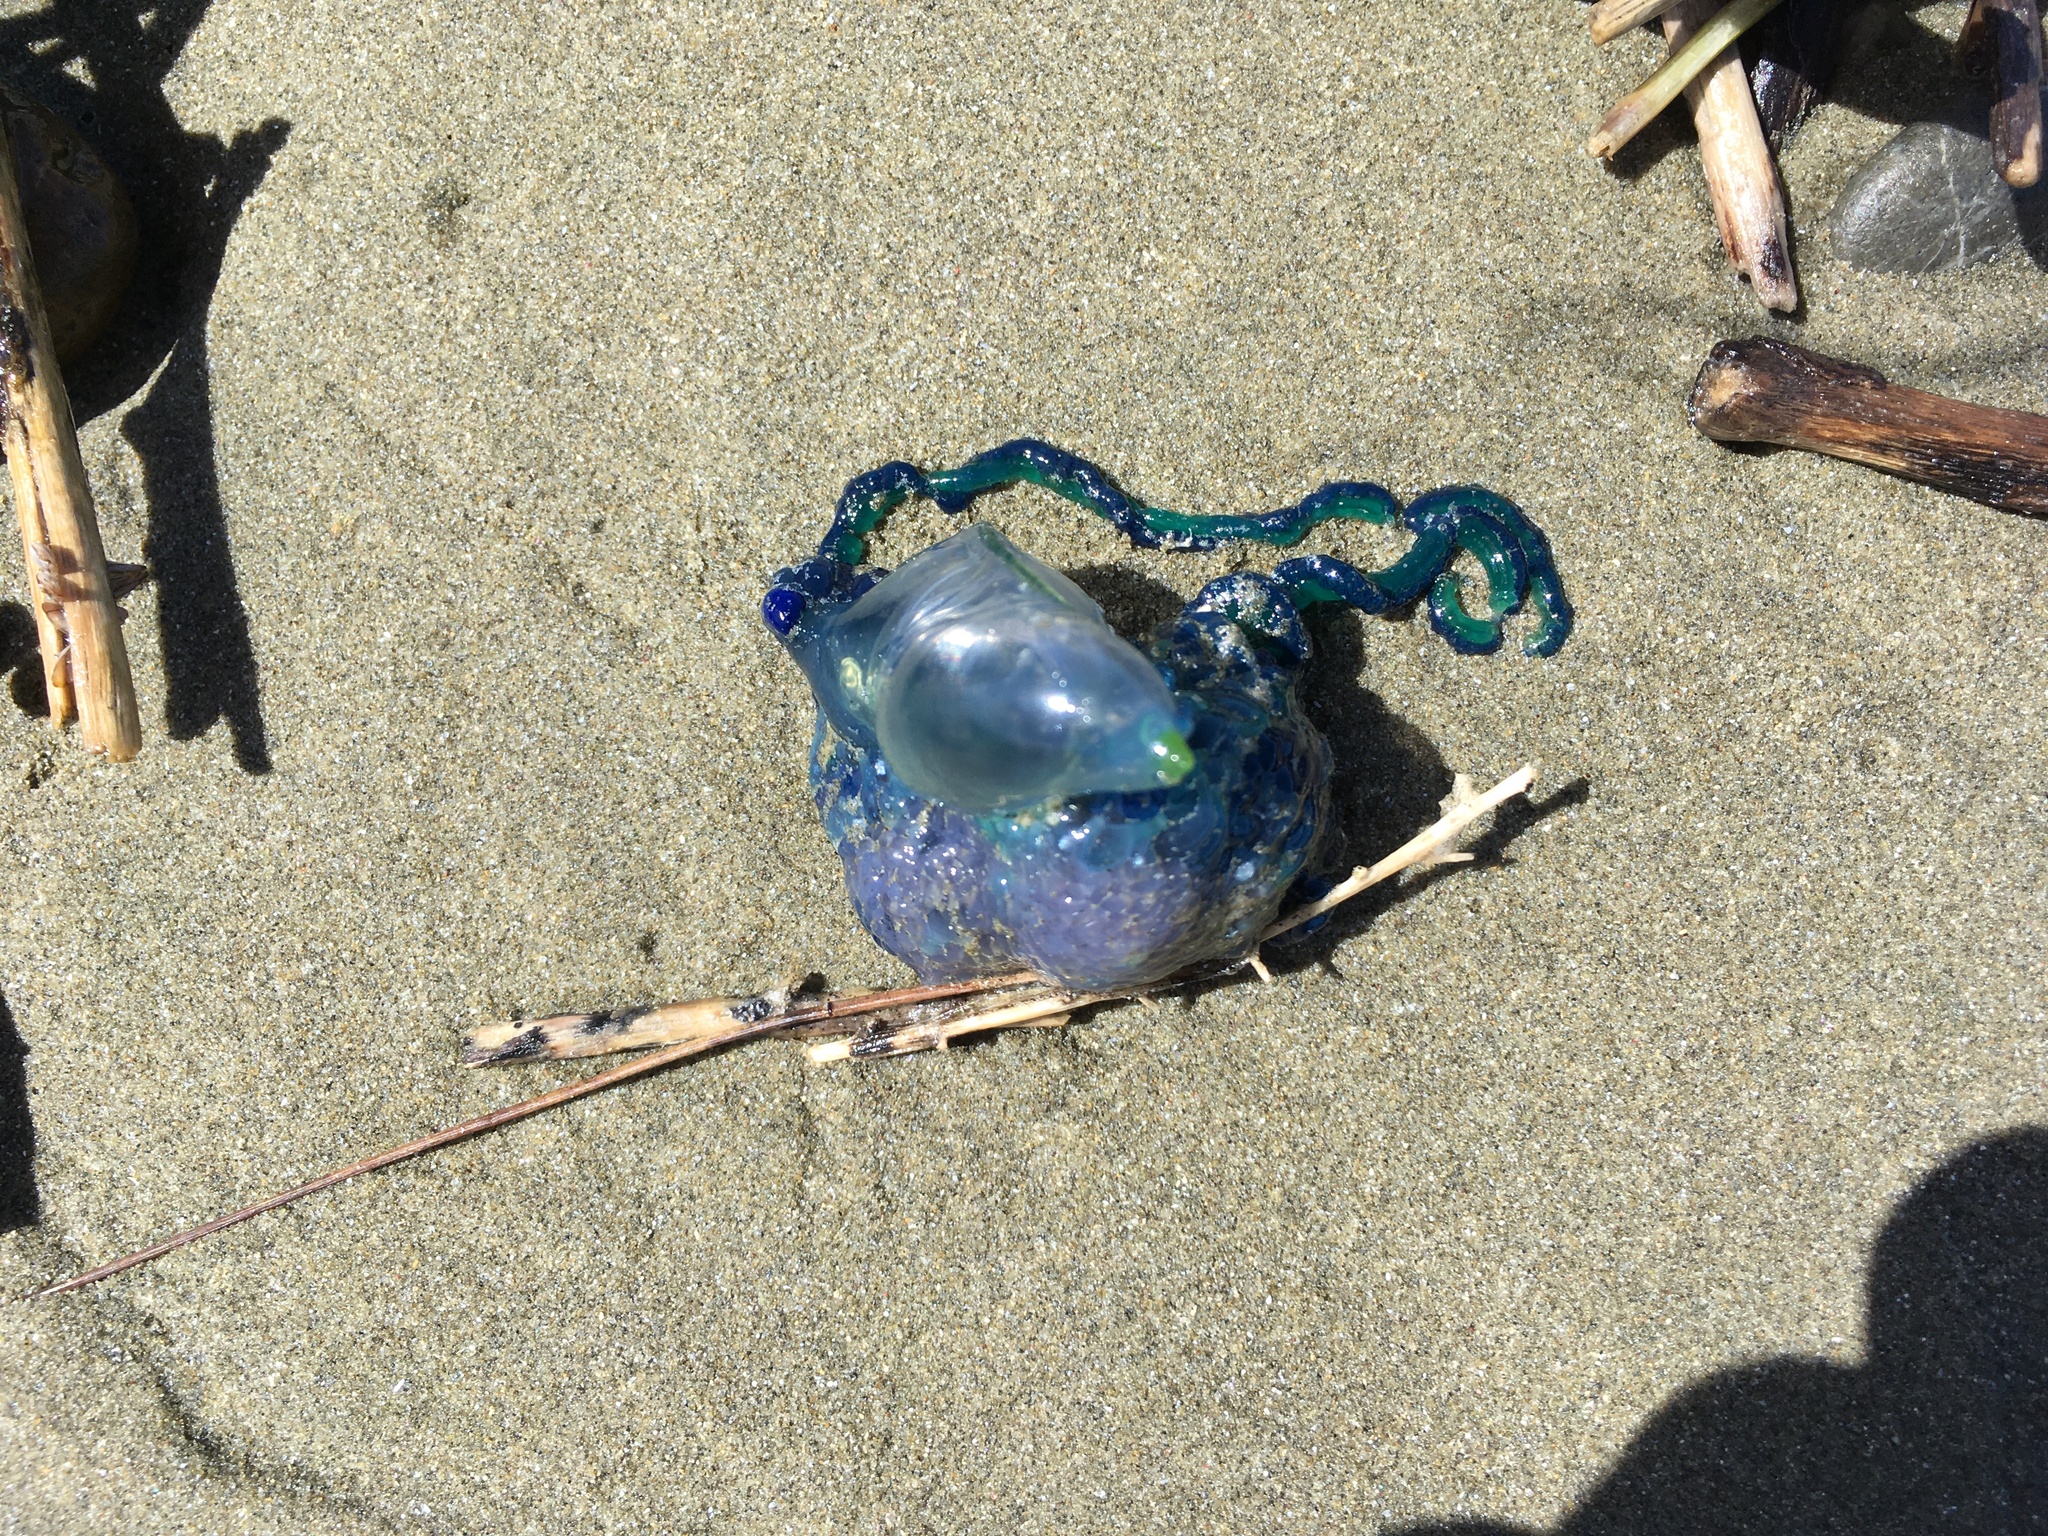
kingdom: Animalia
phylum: Cnidaria
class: Hydrozoa
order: Siphonophorae
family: Physaliidae
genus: Physalia
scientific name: Physalia physalis
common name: Portuguese man-of-war
